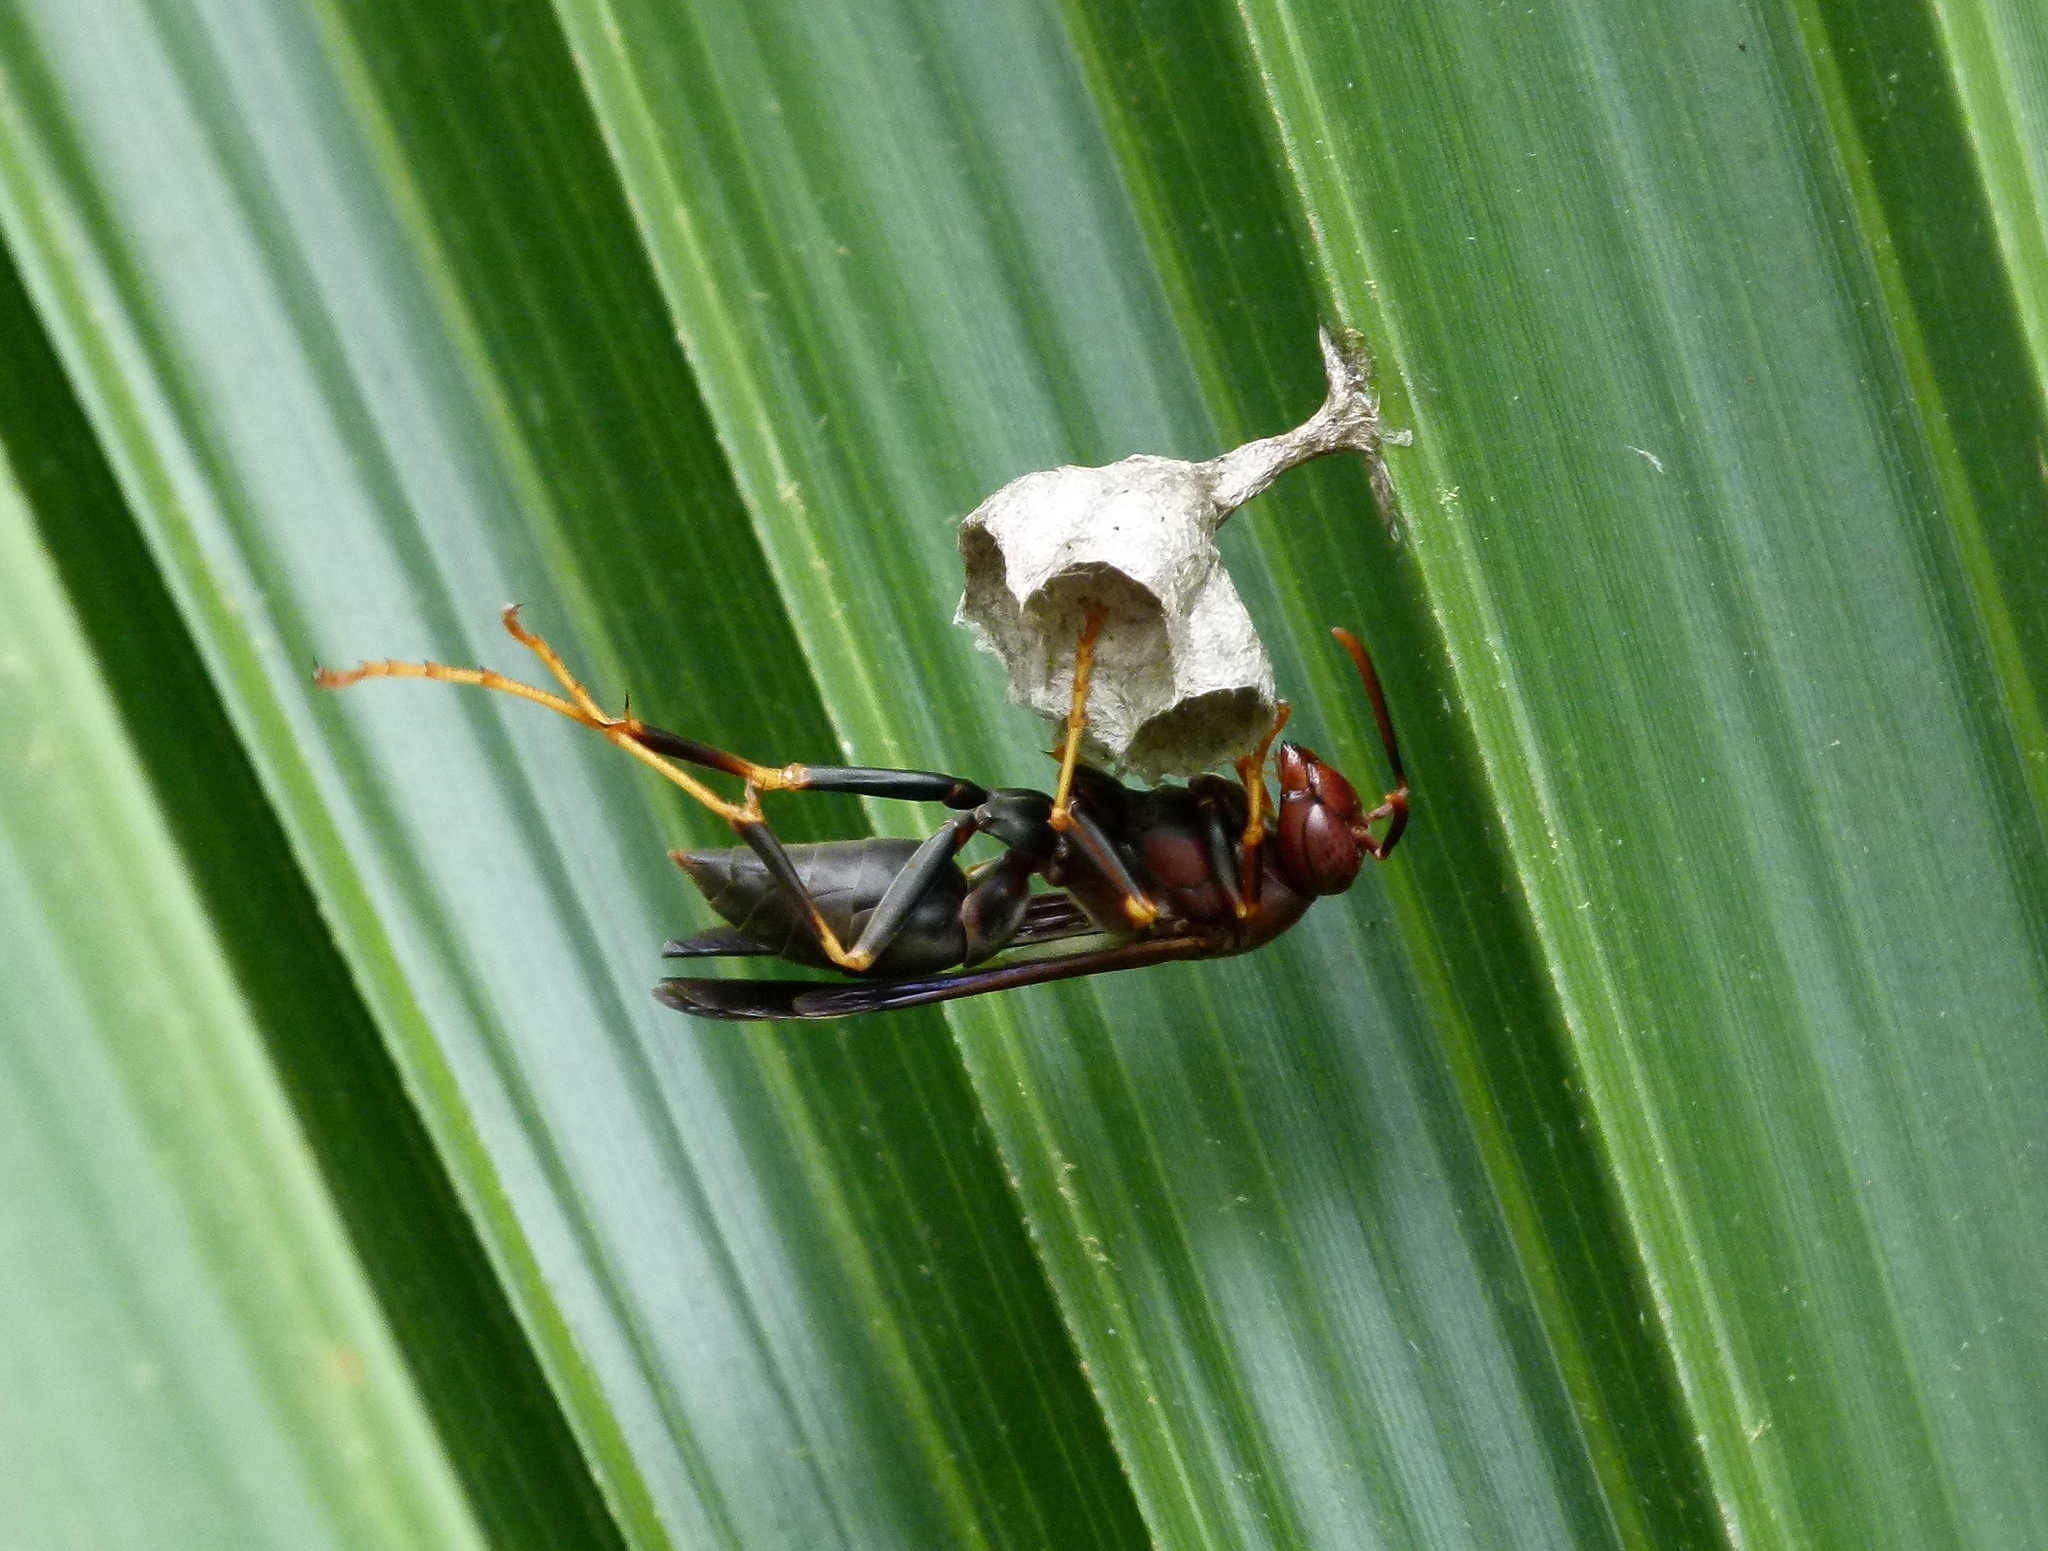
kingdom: Animalia
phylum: Arthropoda
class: Insecta
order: Hymenoptera
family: Eumenidae
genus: Polistes
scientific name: Polistes metricus
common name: Metric paper wasp
